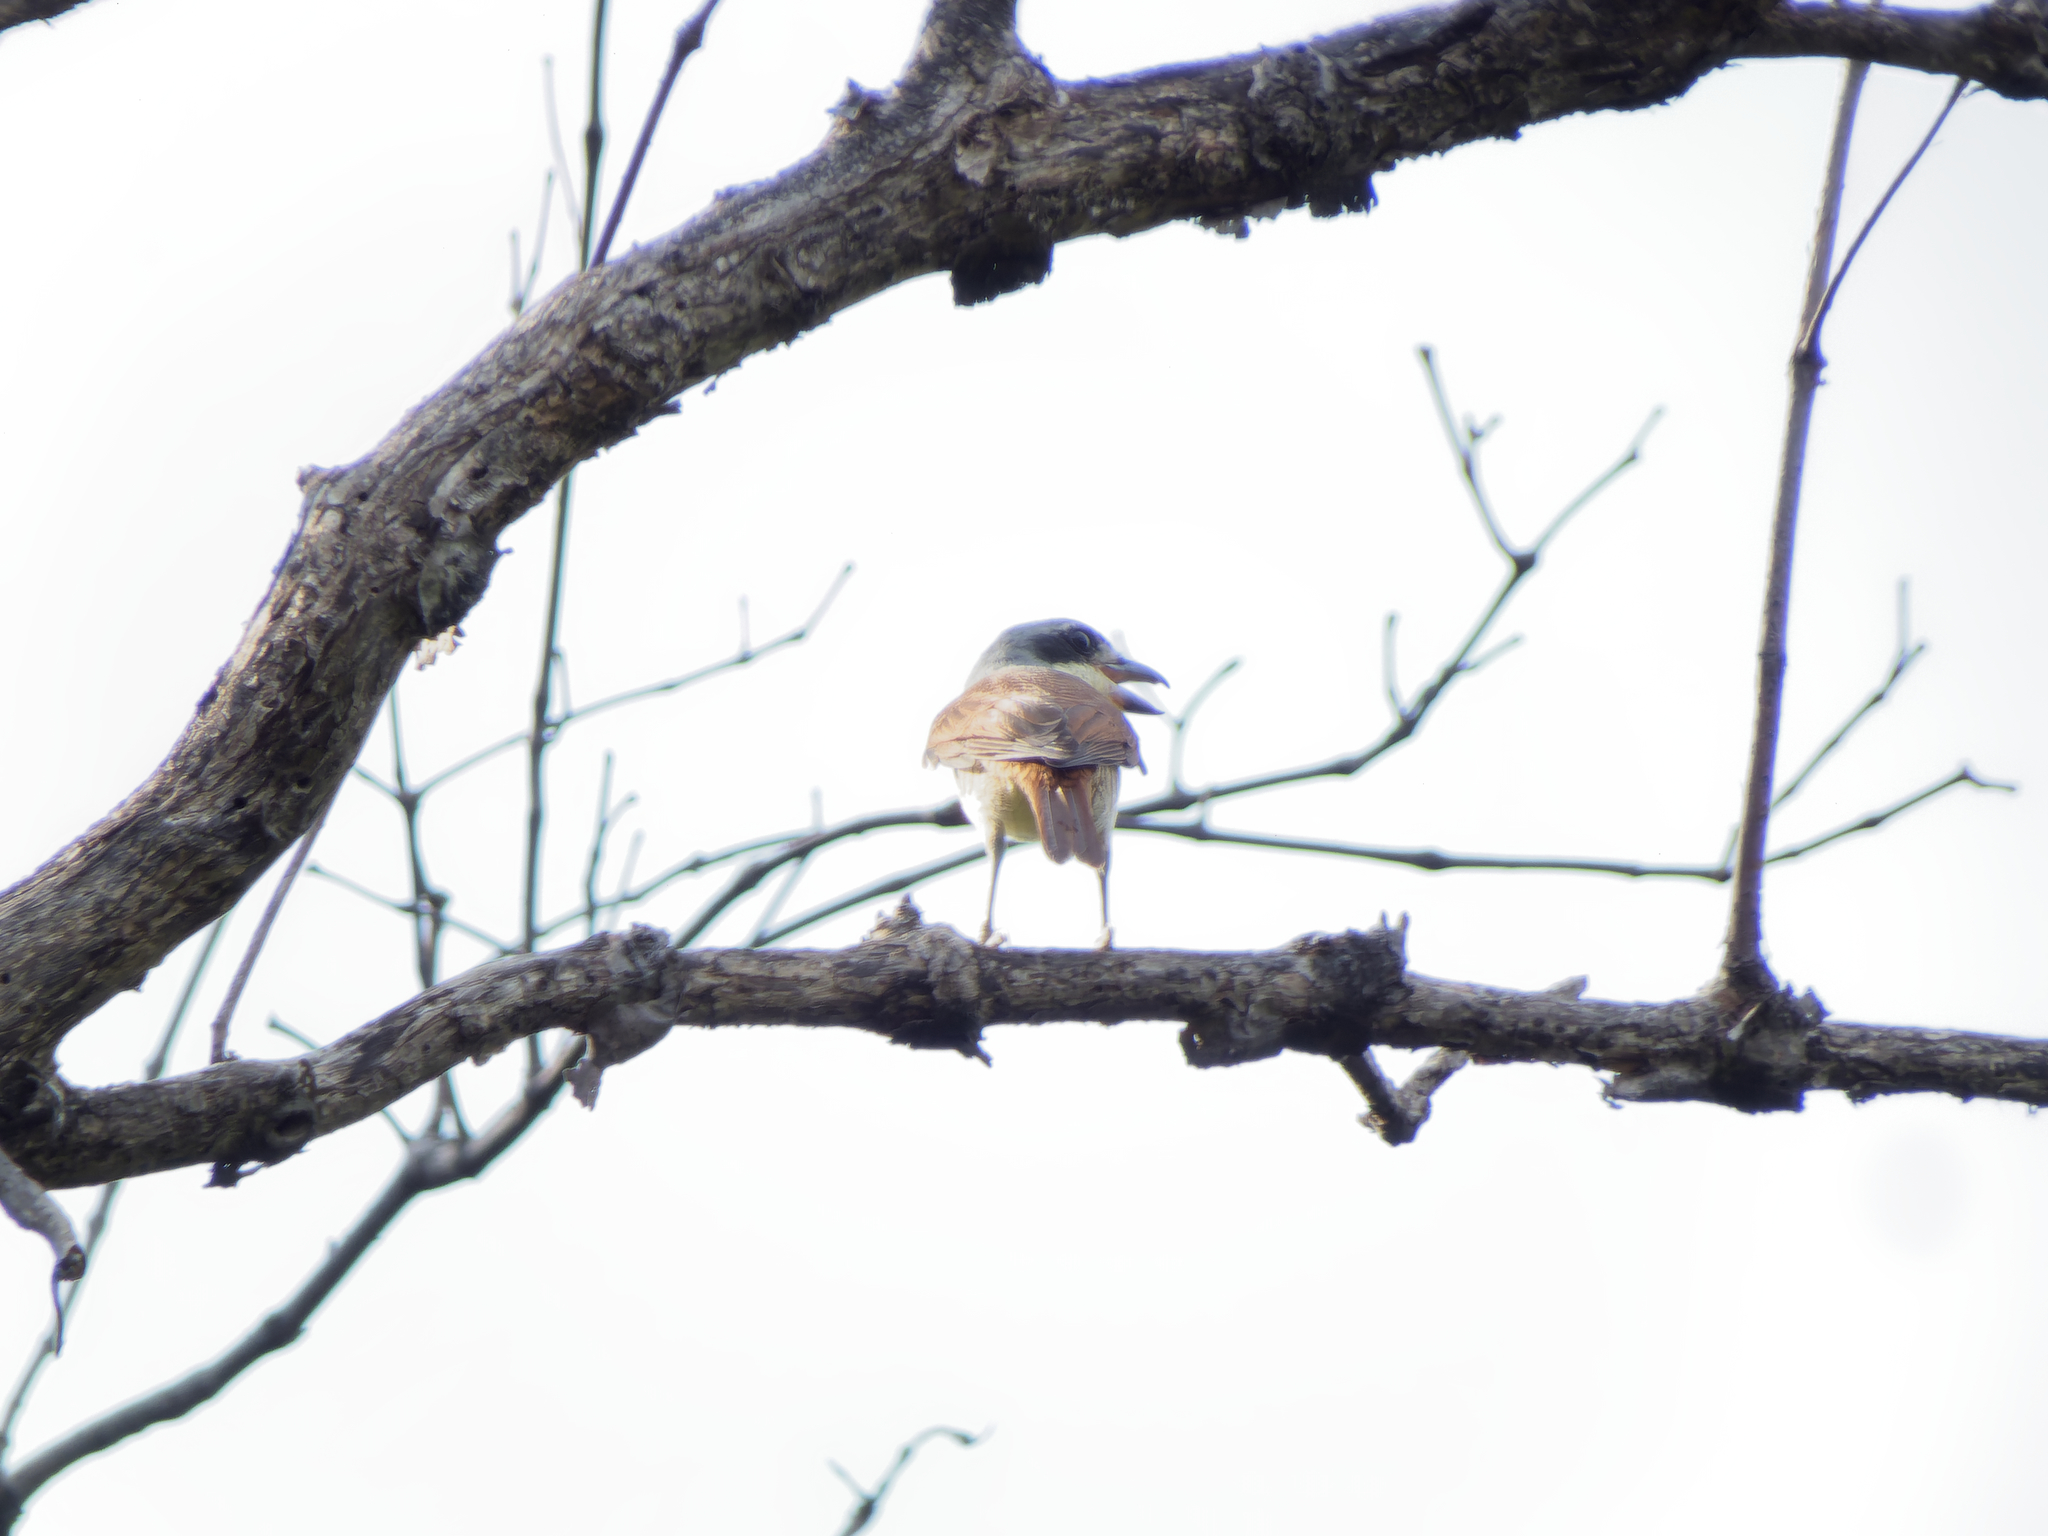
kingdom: Animalia
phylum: Chordata
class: Aves
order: Passeriformes
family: Laniidae
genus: Lanius
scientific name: Lanius tigrinus
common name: Tiger shrike
